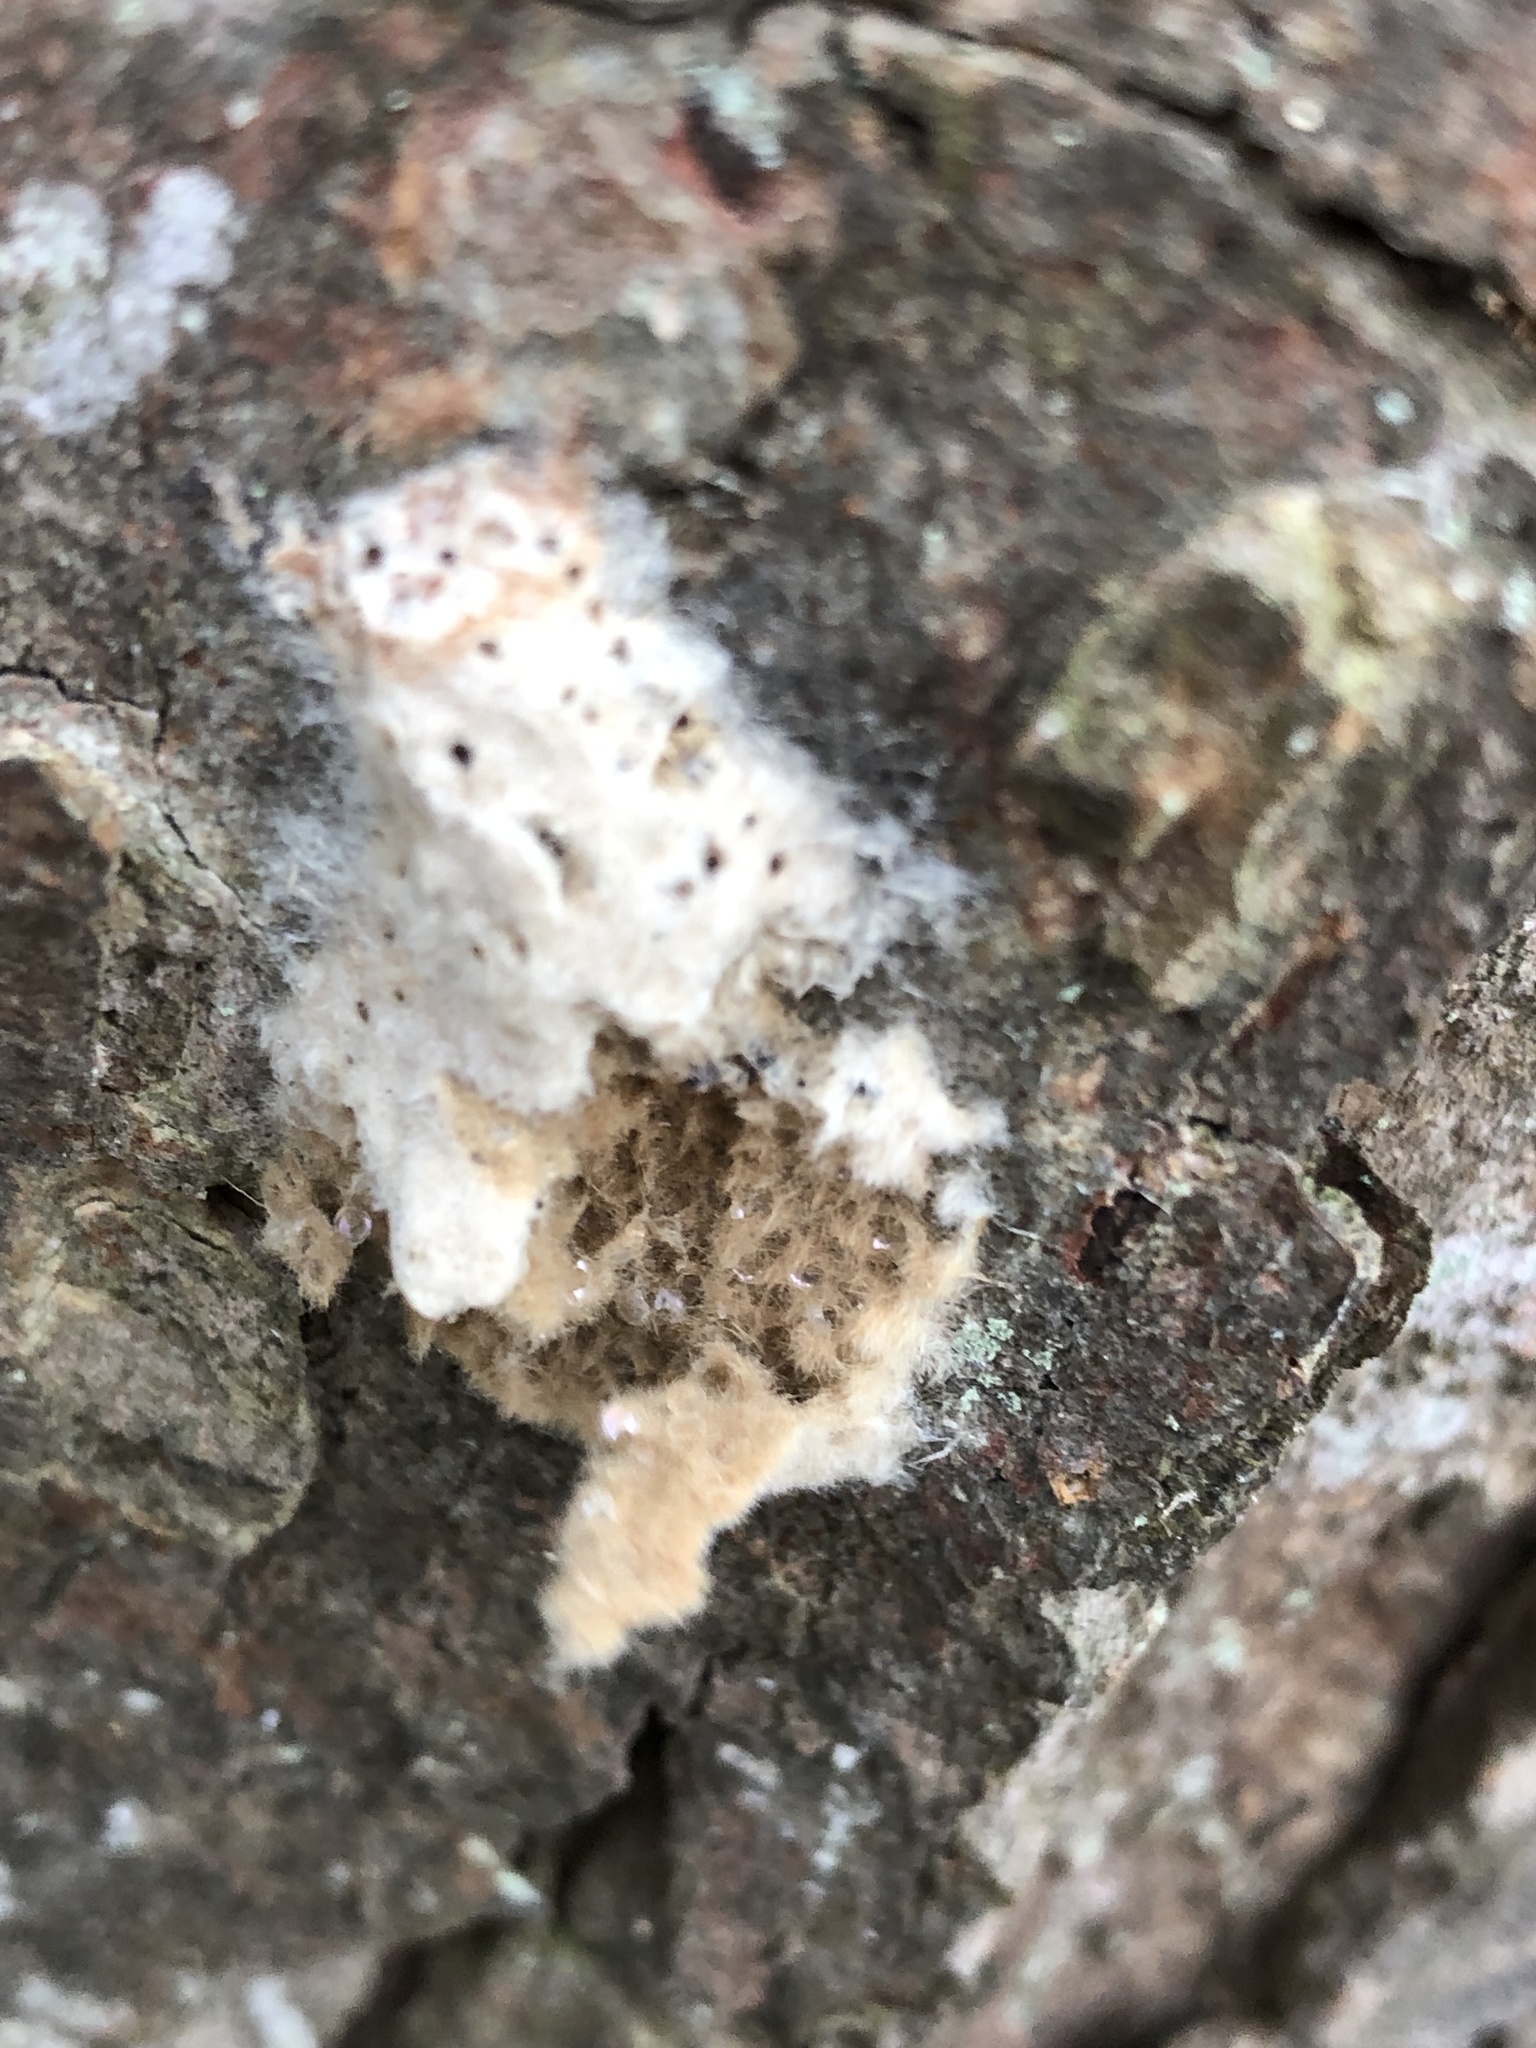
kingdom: Animalia
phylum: Arthropoda
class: Insecta
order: Lepidoptera
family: Erebidae
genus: Lymantria
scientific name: Lymantria dispar
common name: Gypsy moth
